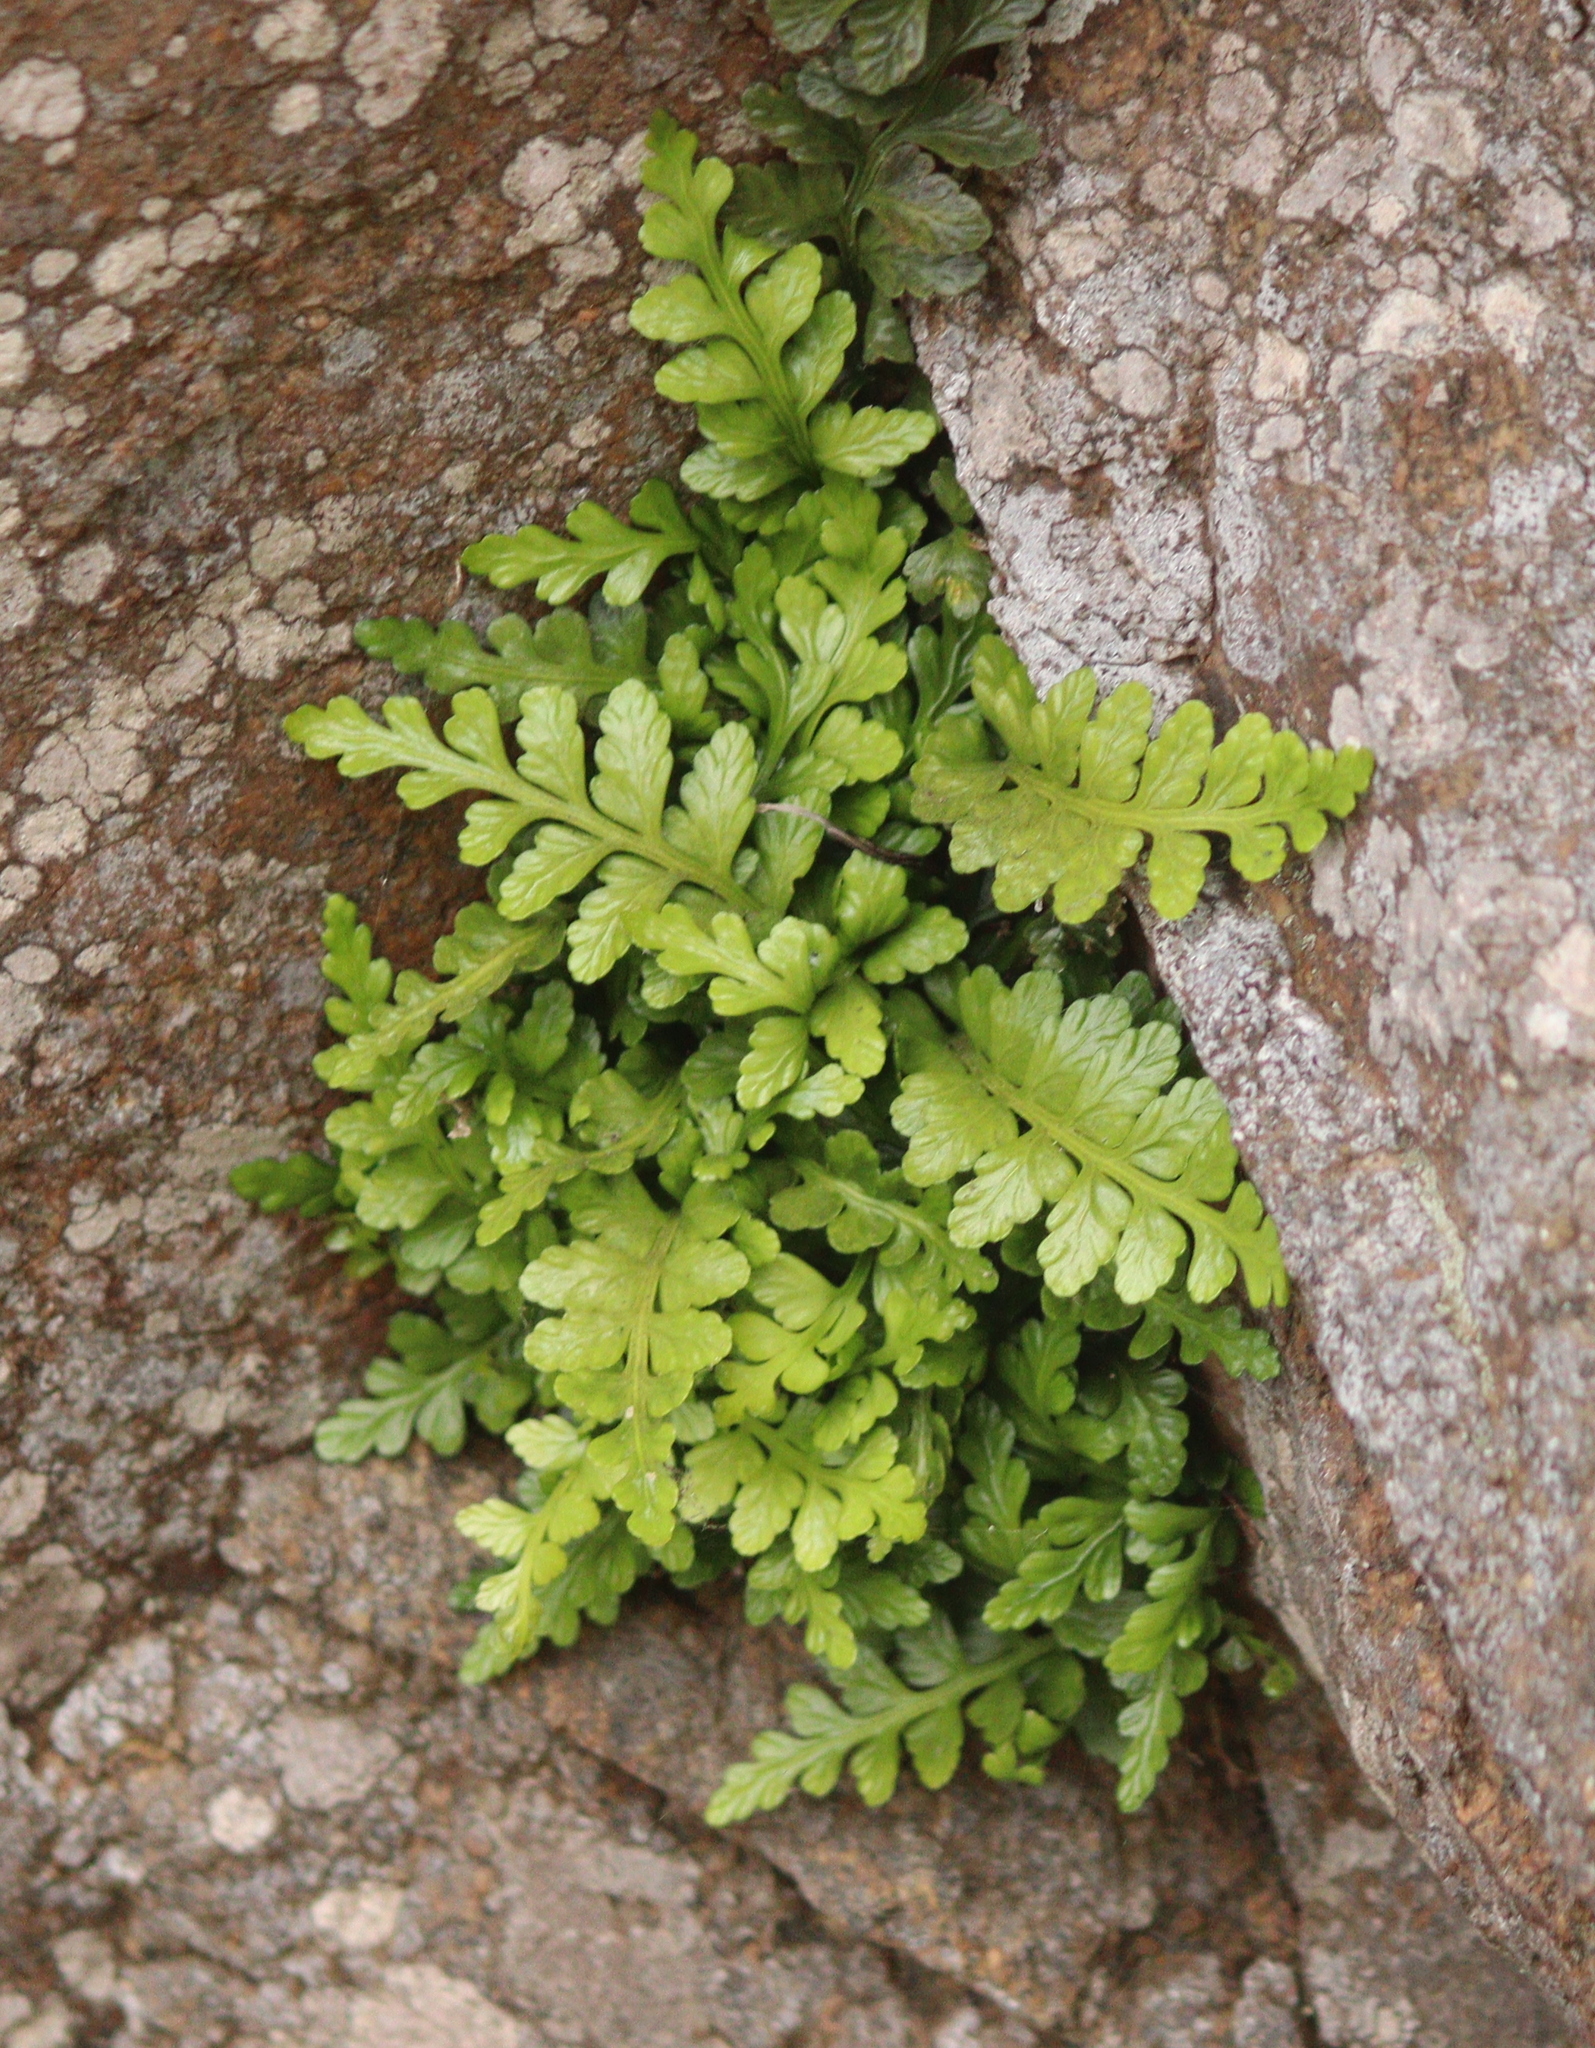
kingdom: Plantae
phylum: Tracheophyta
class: Polypodiopsida
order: Polypodiales
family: Aspleniaceae
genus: Asplenium
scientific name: Asplenium marinum
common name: Sea spleenwort
